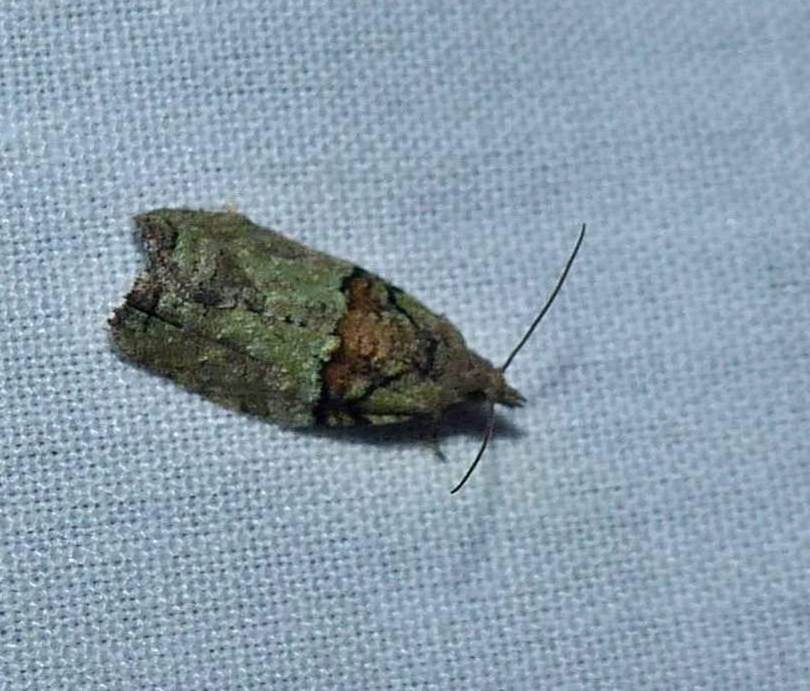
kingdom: Animalia
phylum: Arthropoda
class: Insecta
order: Lepidoptera
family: Tortricidae
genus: Epinotia
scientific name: Epinotia medioviridana
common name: Raspberry leaf-roller moth
